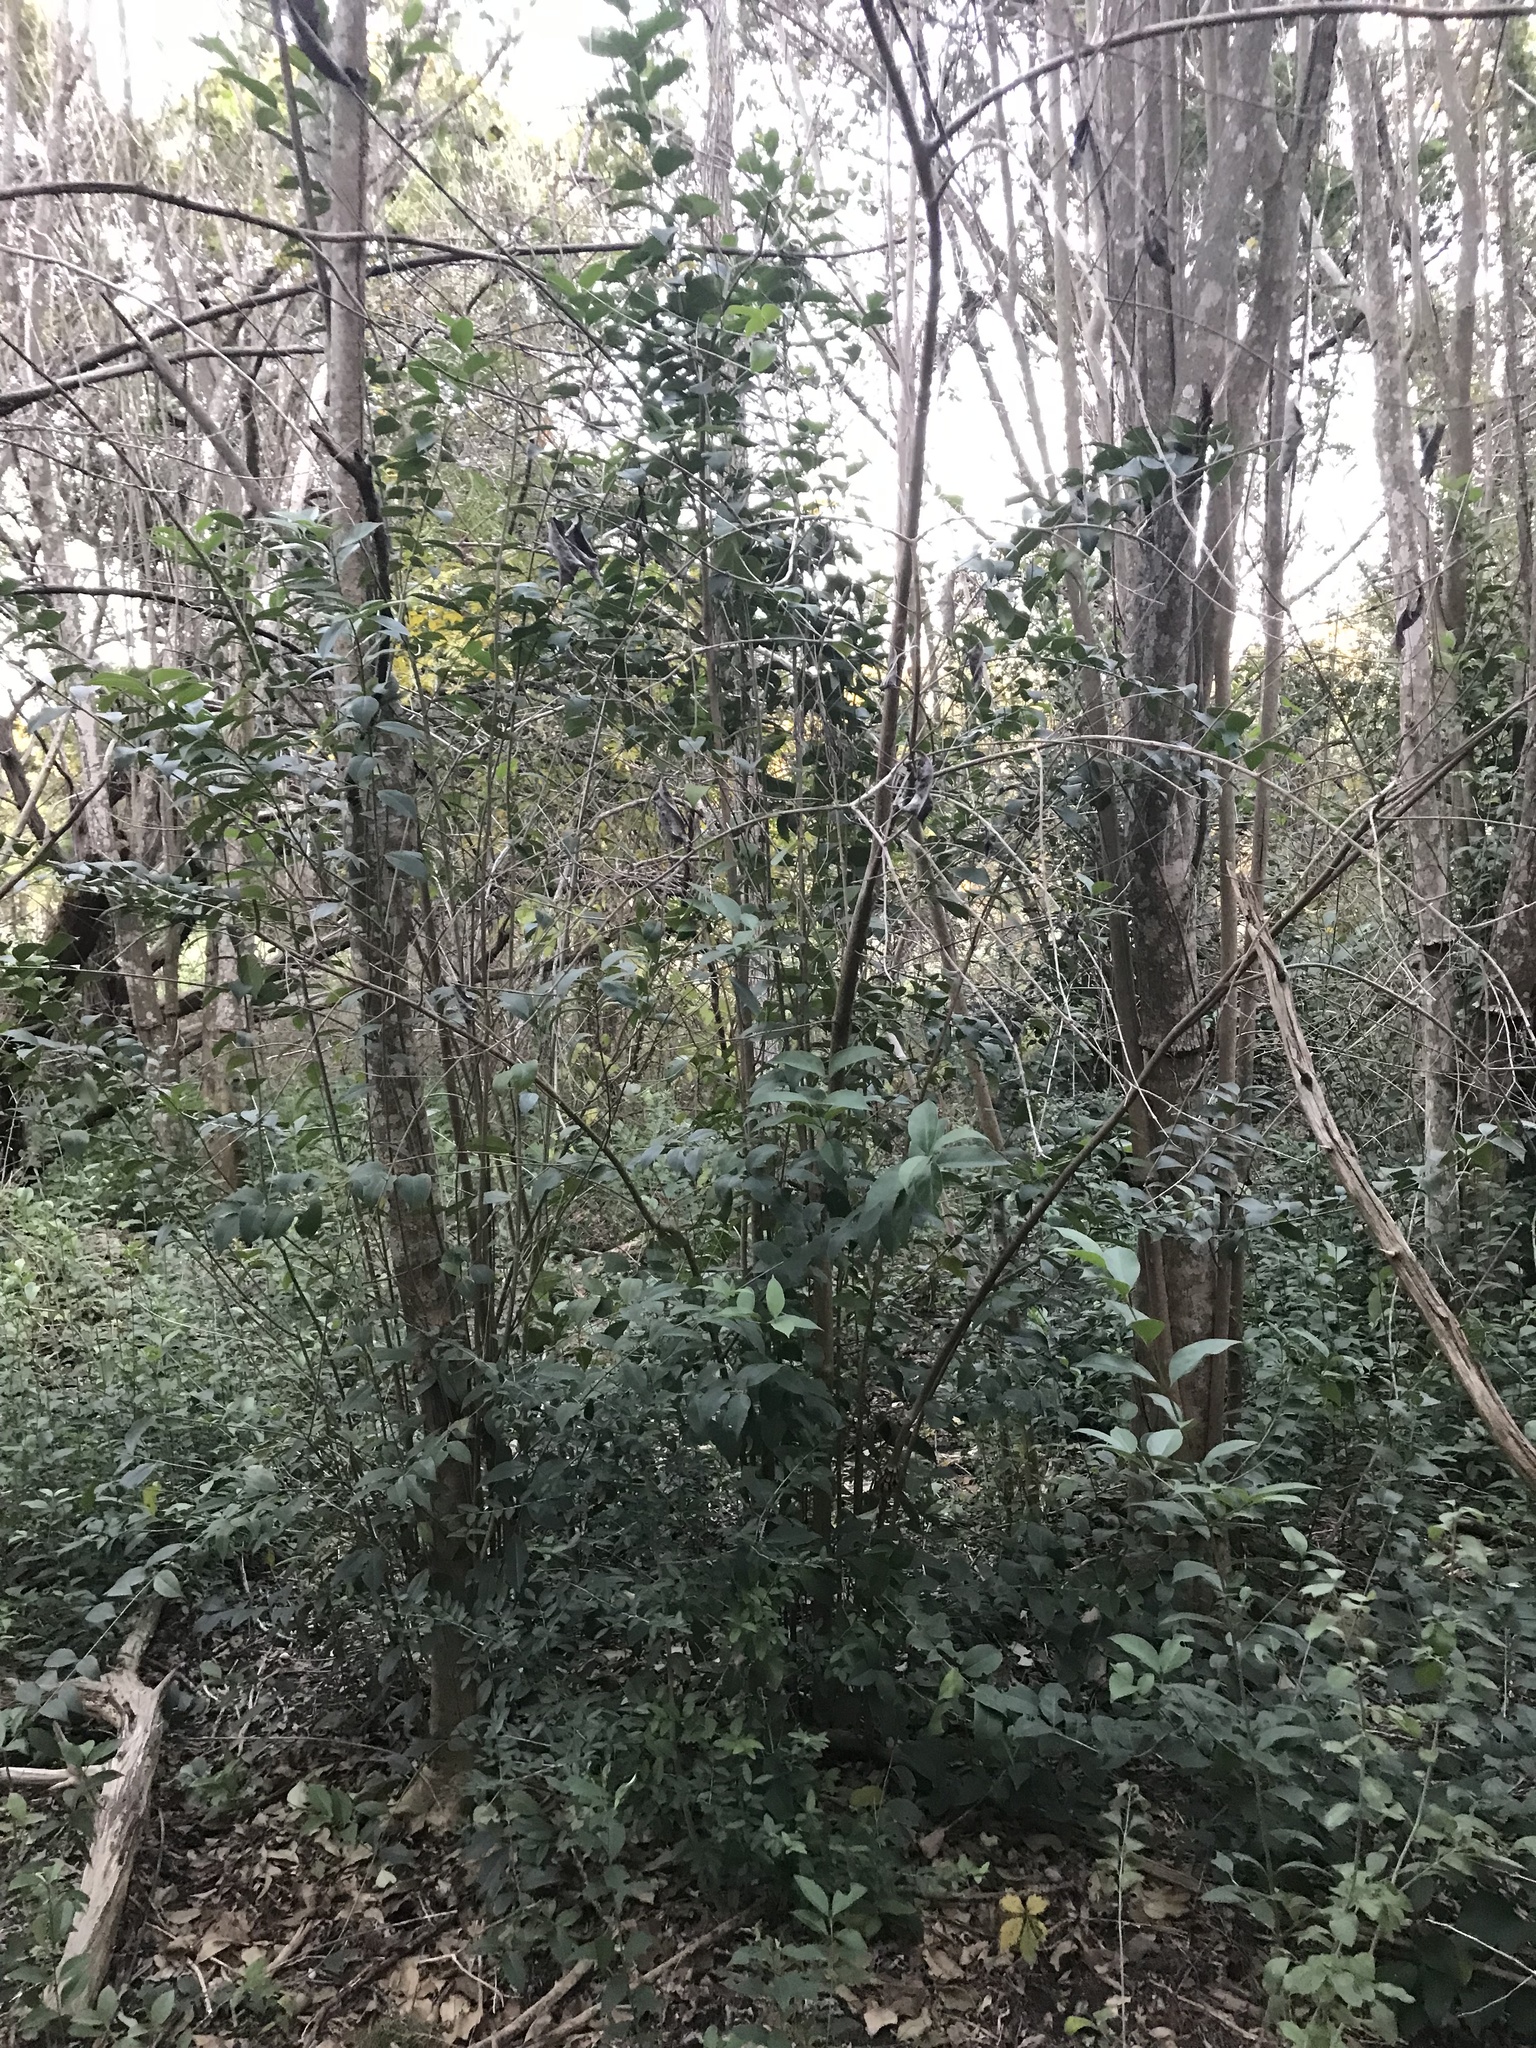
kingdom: Plantae
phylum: Tracheophyta
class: Magnoliopsida
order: Lamiales
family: Oleaceae
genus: Ligustrum
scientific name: Ligustrum lucidum
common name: Glossy privet
